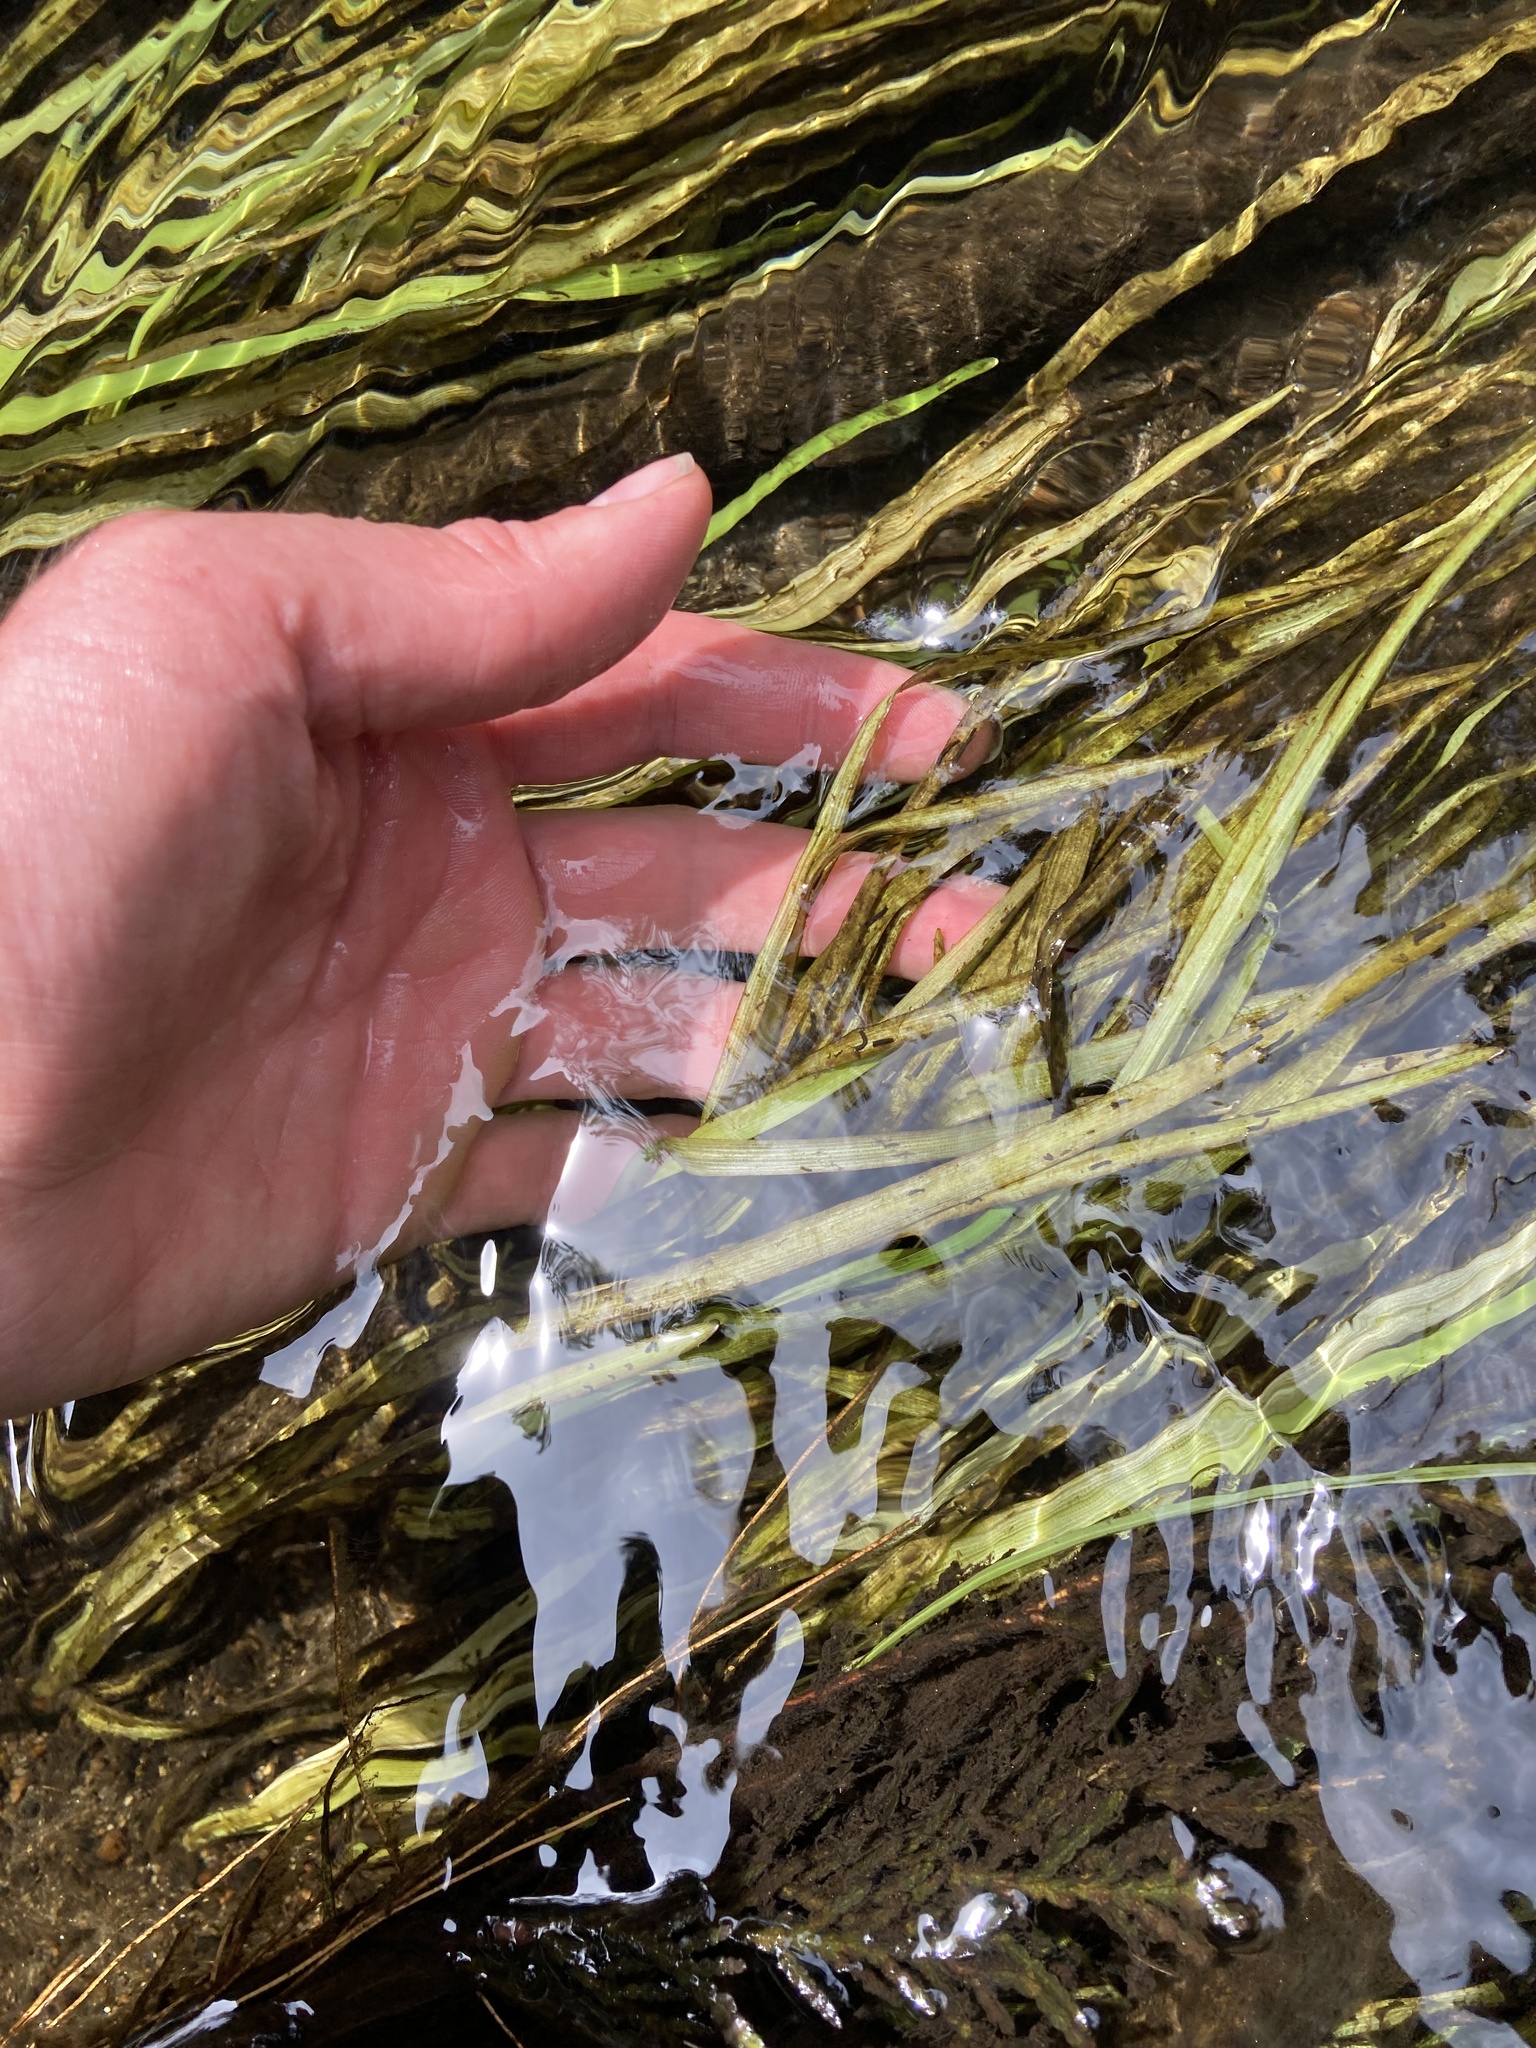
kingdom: Plantae
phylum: Tracheophyta
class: Liliopsida
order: Alismatales
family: Hydrocharitaceae
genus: Vallisneria
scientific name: Vallisneria americana
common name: American eelgrass
